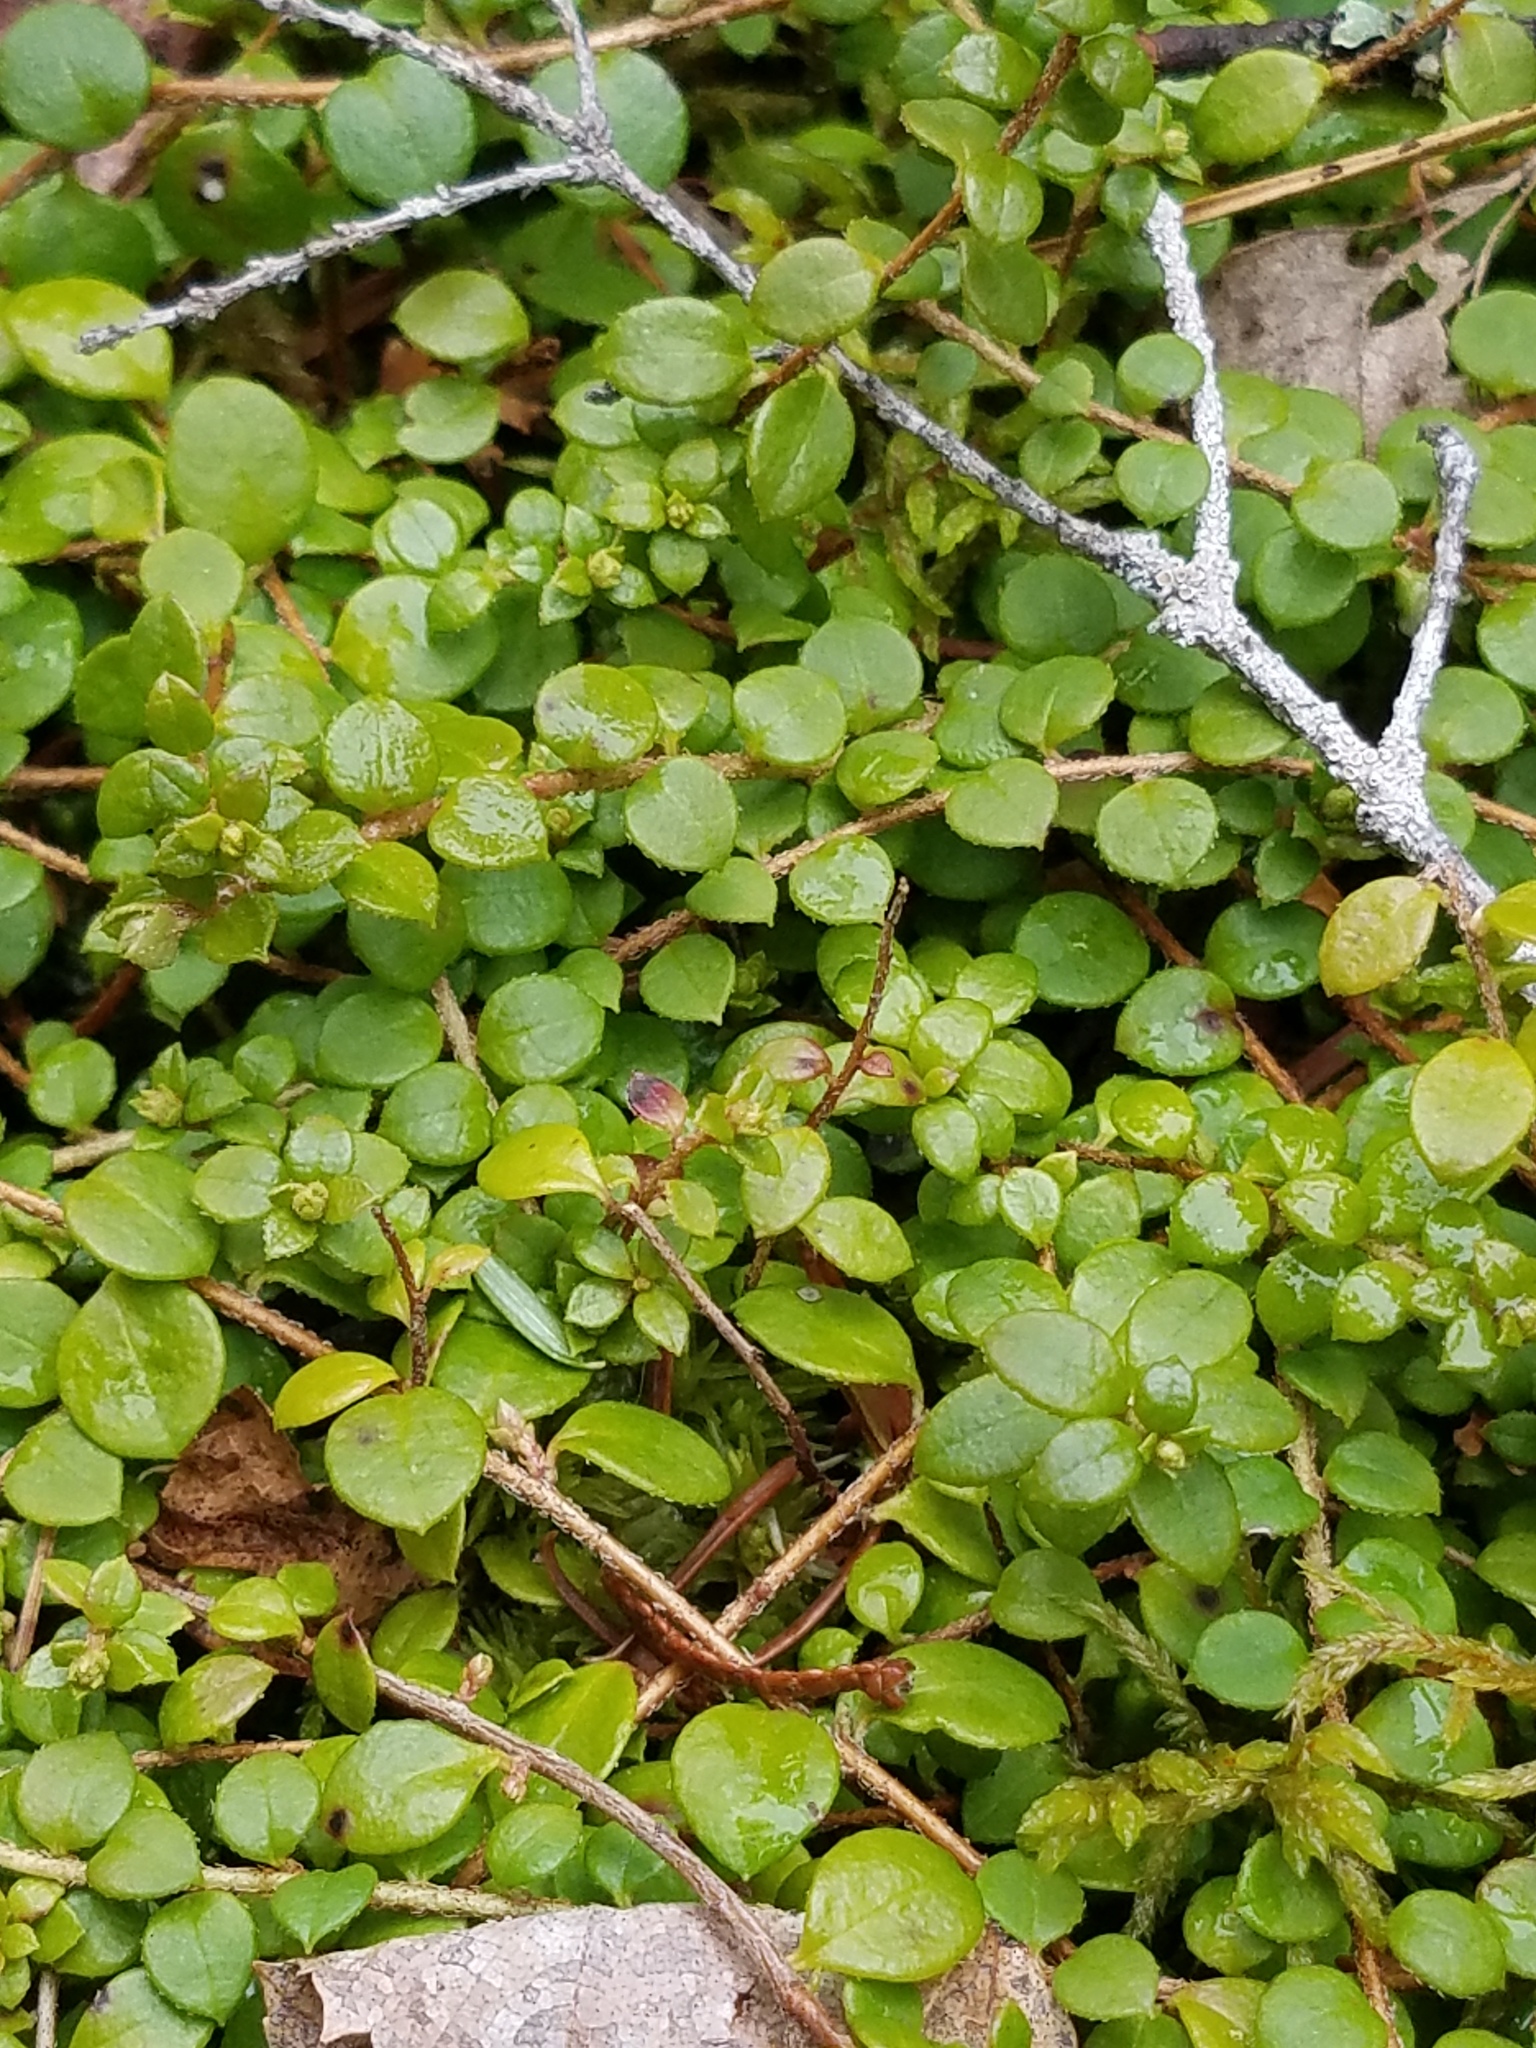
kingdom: Plantae
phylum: Tracheophyta
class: Magnoliopsida
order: Ericales
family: Ericaceae
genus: Gaultheria
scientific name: Gaultheria hispidula
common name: Cancer wintergreen
